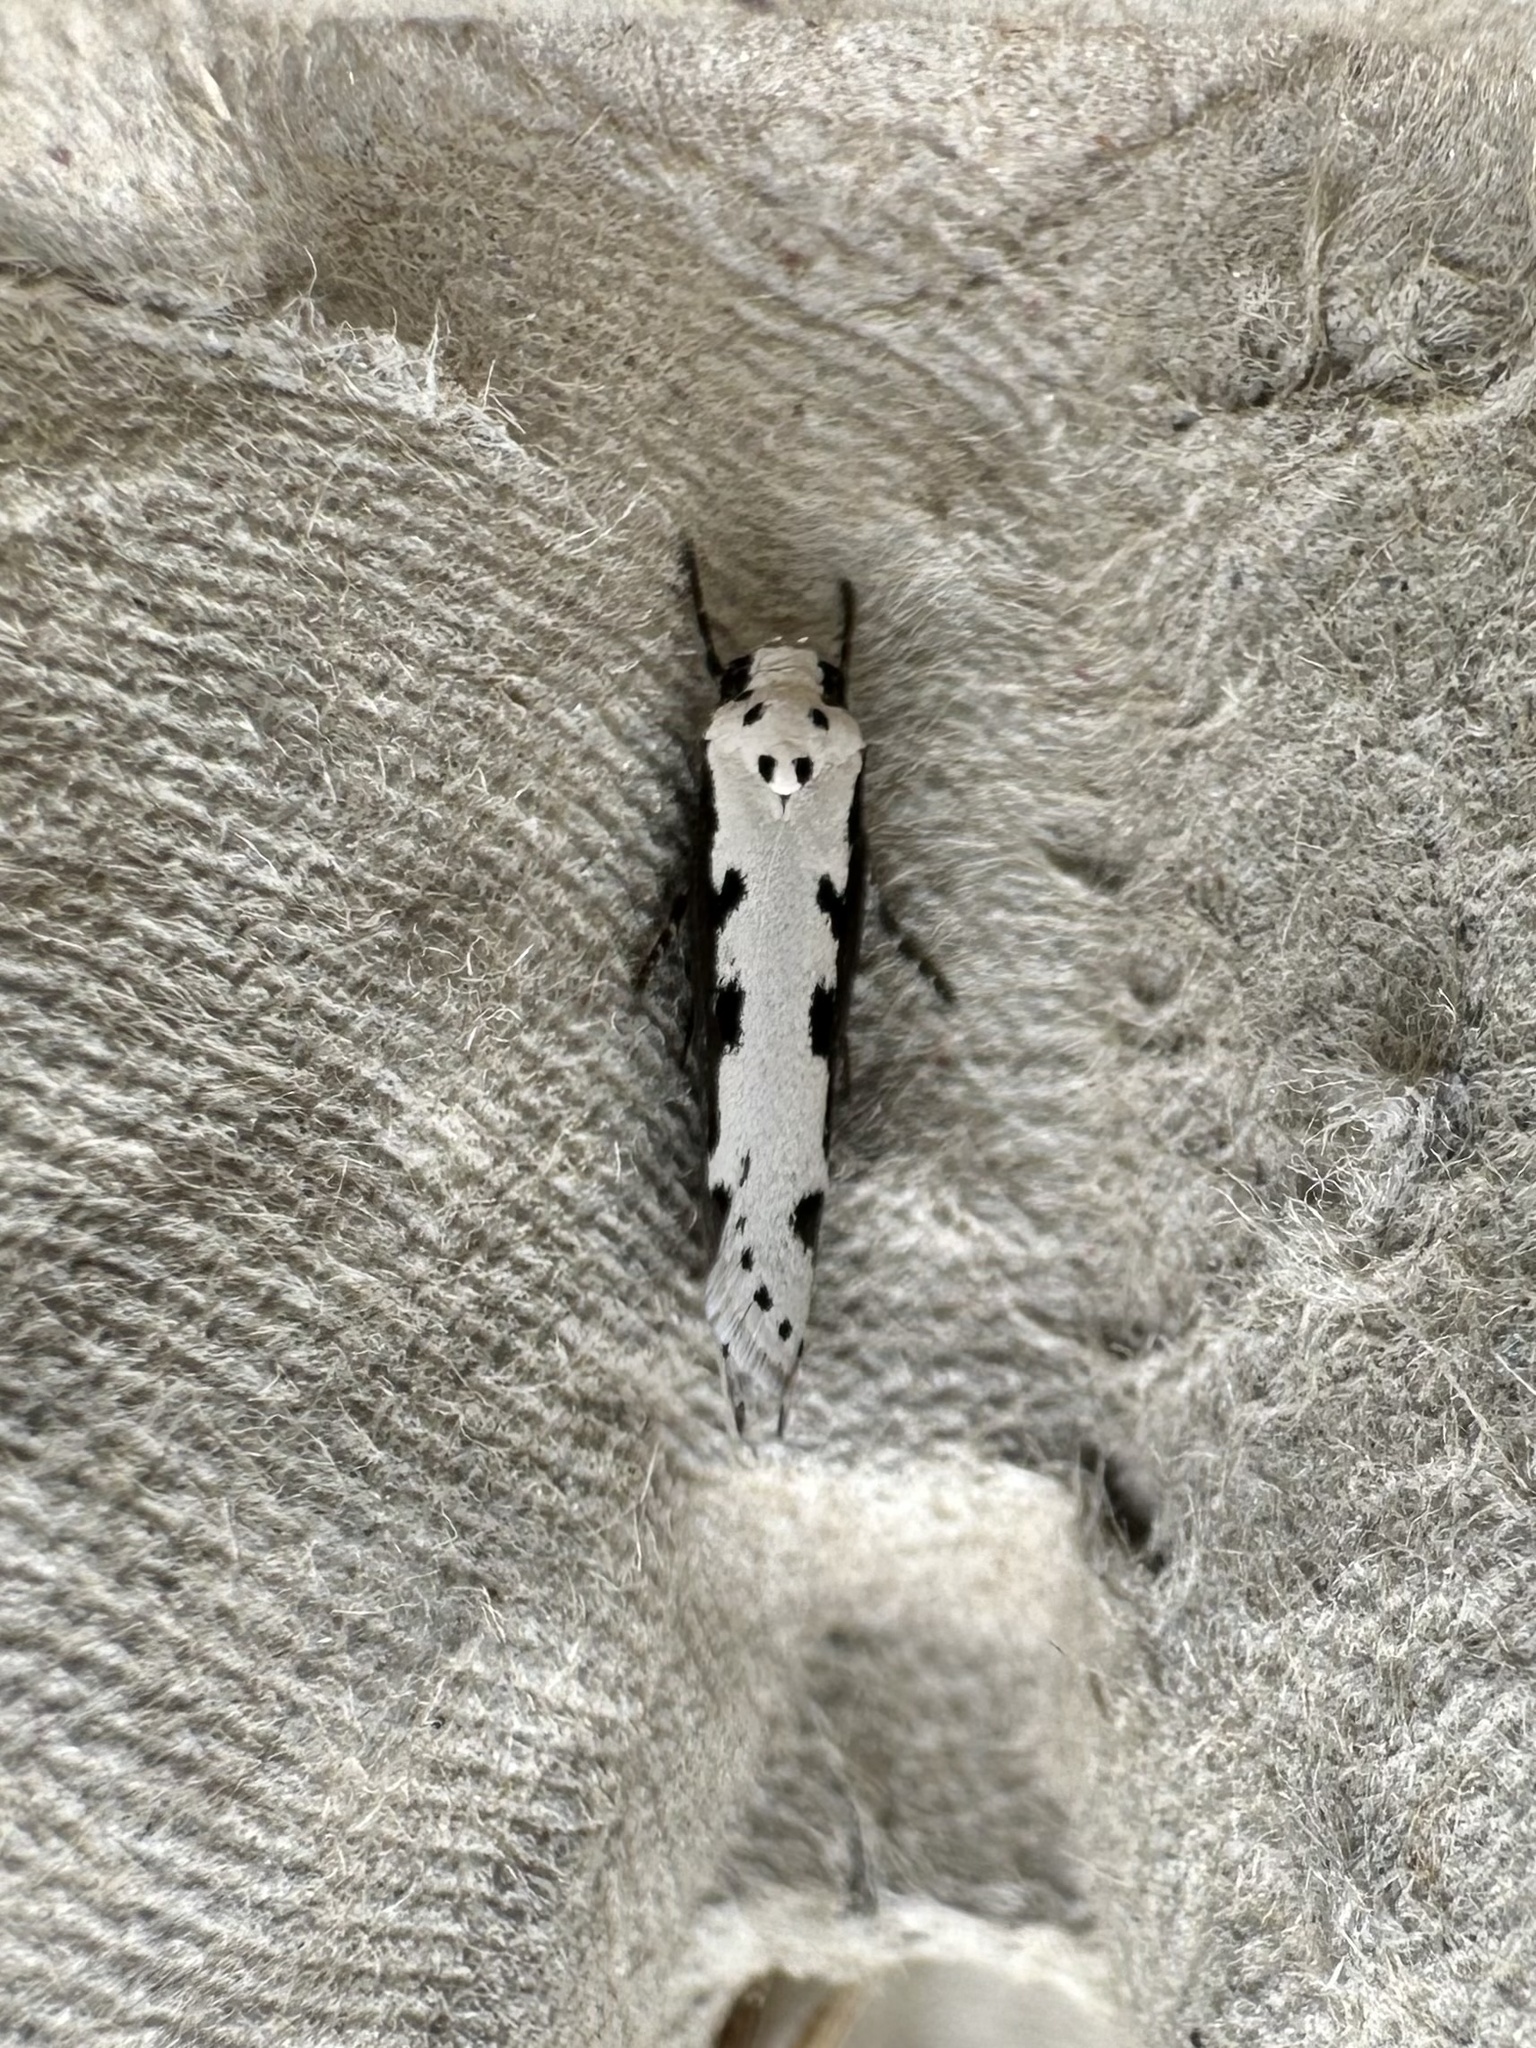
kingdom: Animalia
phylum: Arthropoda
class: Insecta
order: Lepidoptera
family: Ethmiidae
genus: Ethmia
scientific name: Ethmia bipunctella
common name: Bordered ermel
